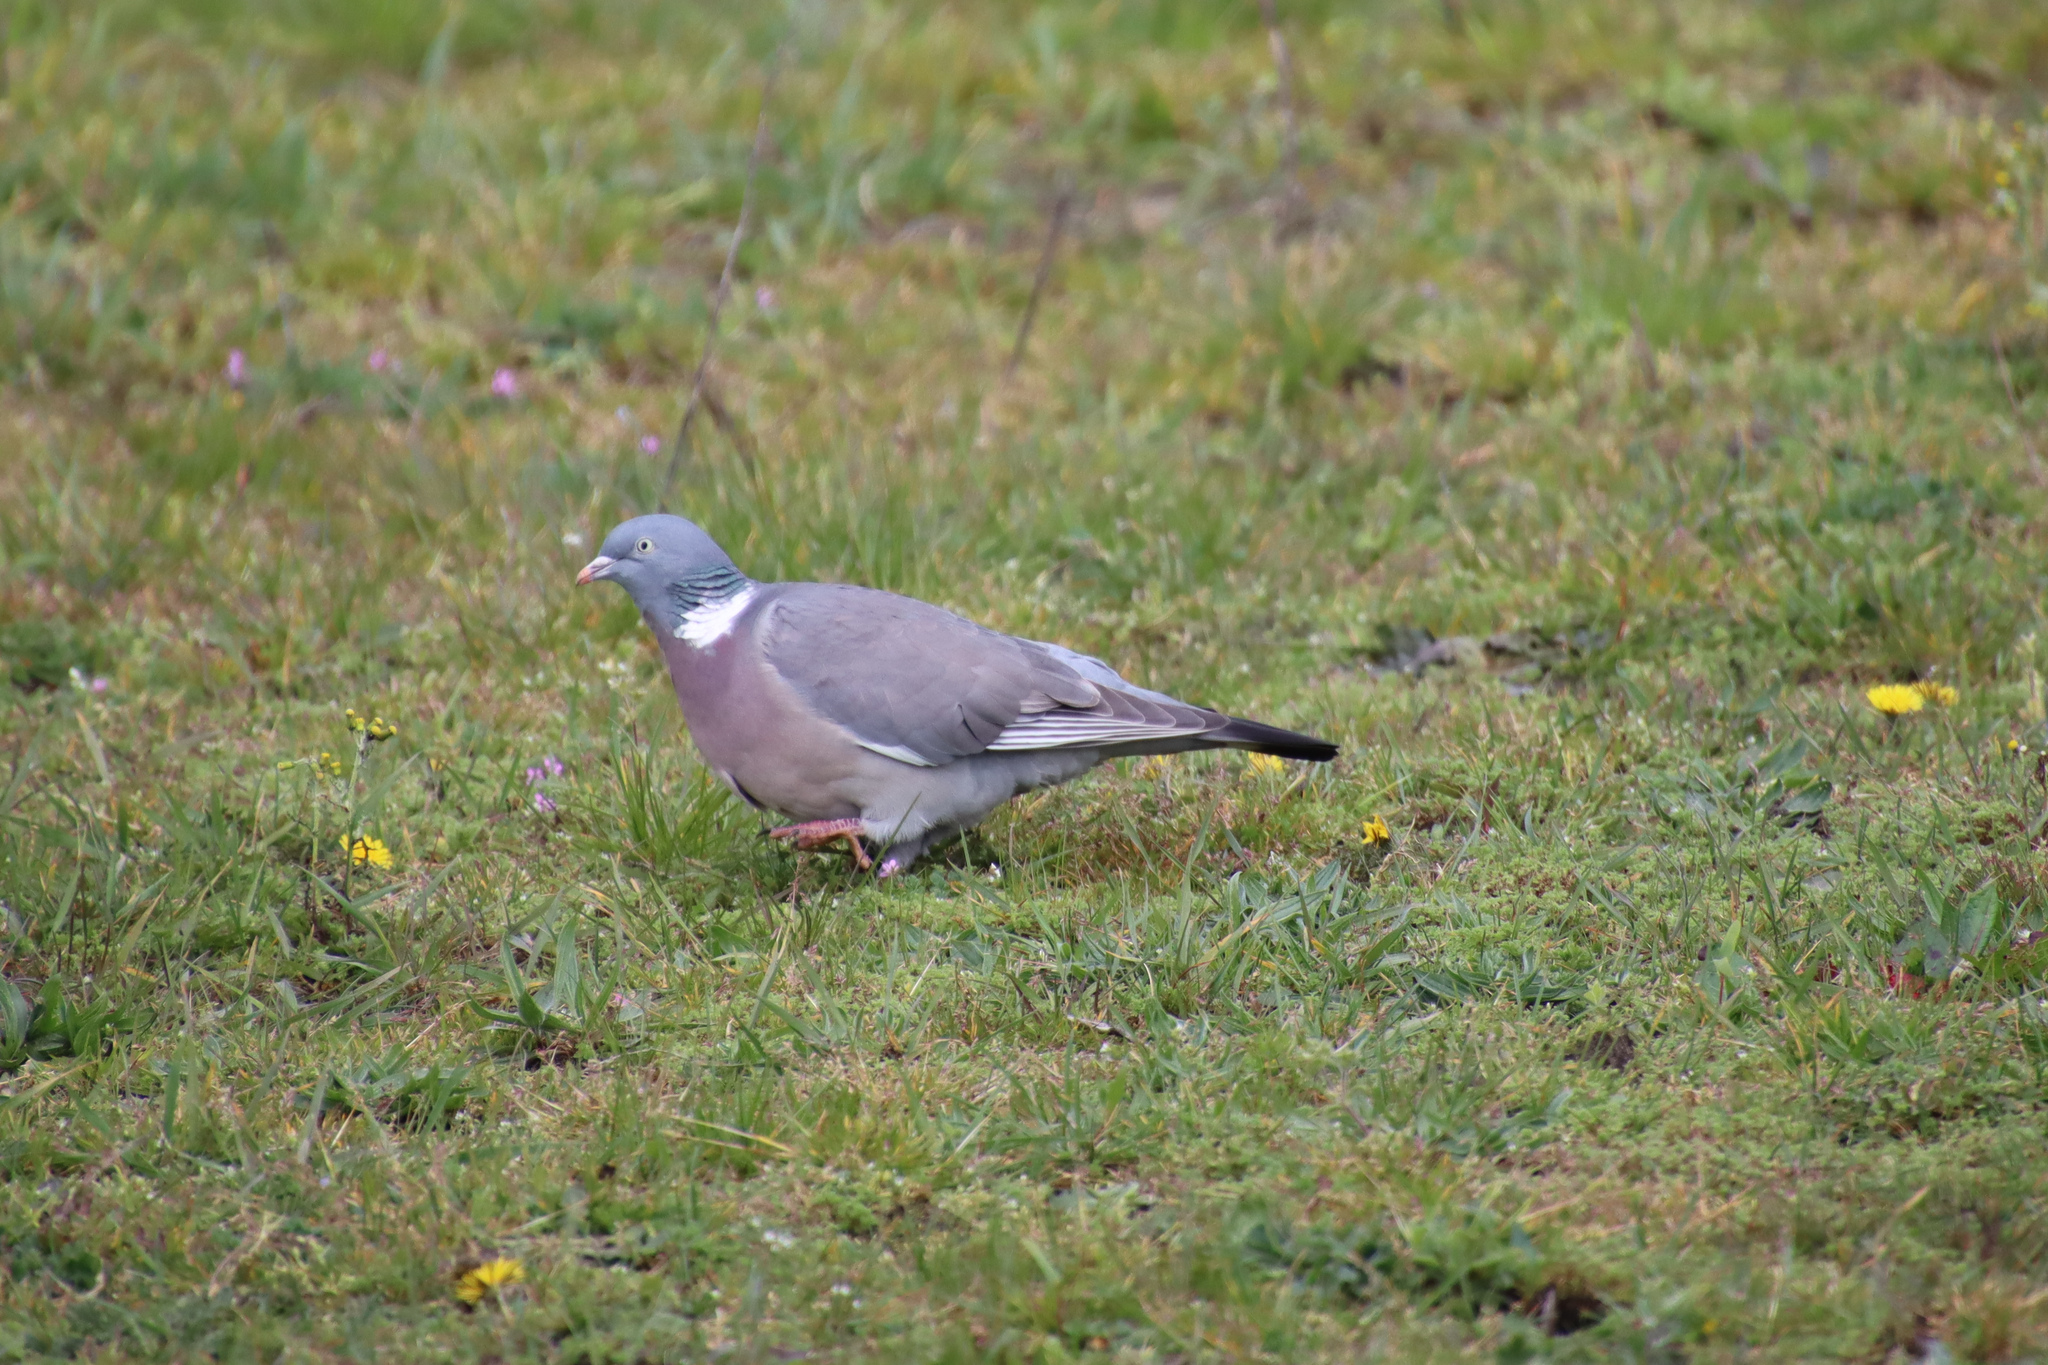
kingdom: Animalia
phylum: Chordata
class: Aves
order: Columbiformes
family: Columbidae
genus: Columba
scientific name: Columba palumbus
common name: Common wood pigeon
